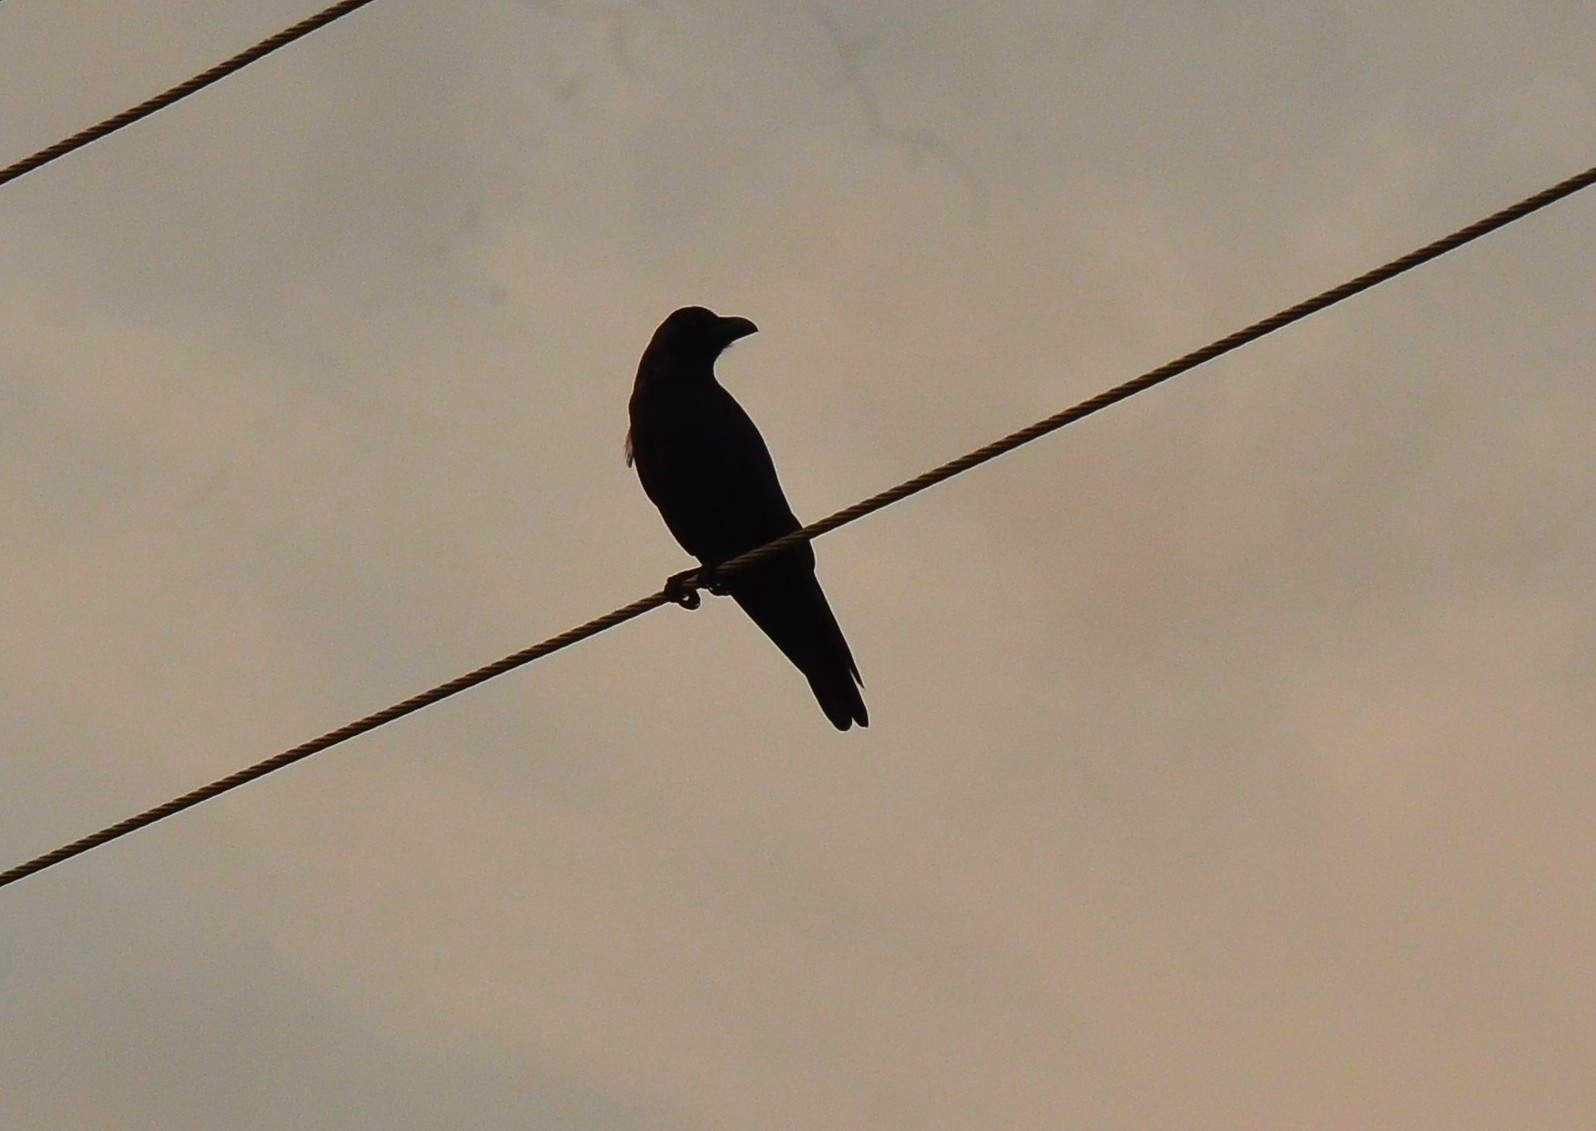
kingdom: Animalia
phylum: Chordata
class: Aves
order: Passeriformes
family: Corvidae
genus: Corvus
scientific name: Corvus splendens
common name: House crow
